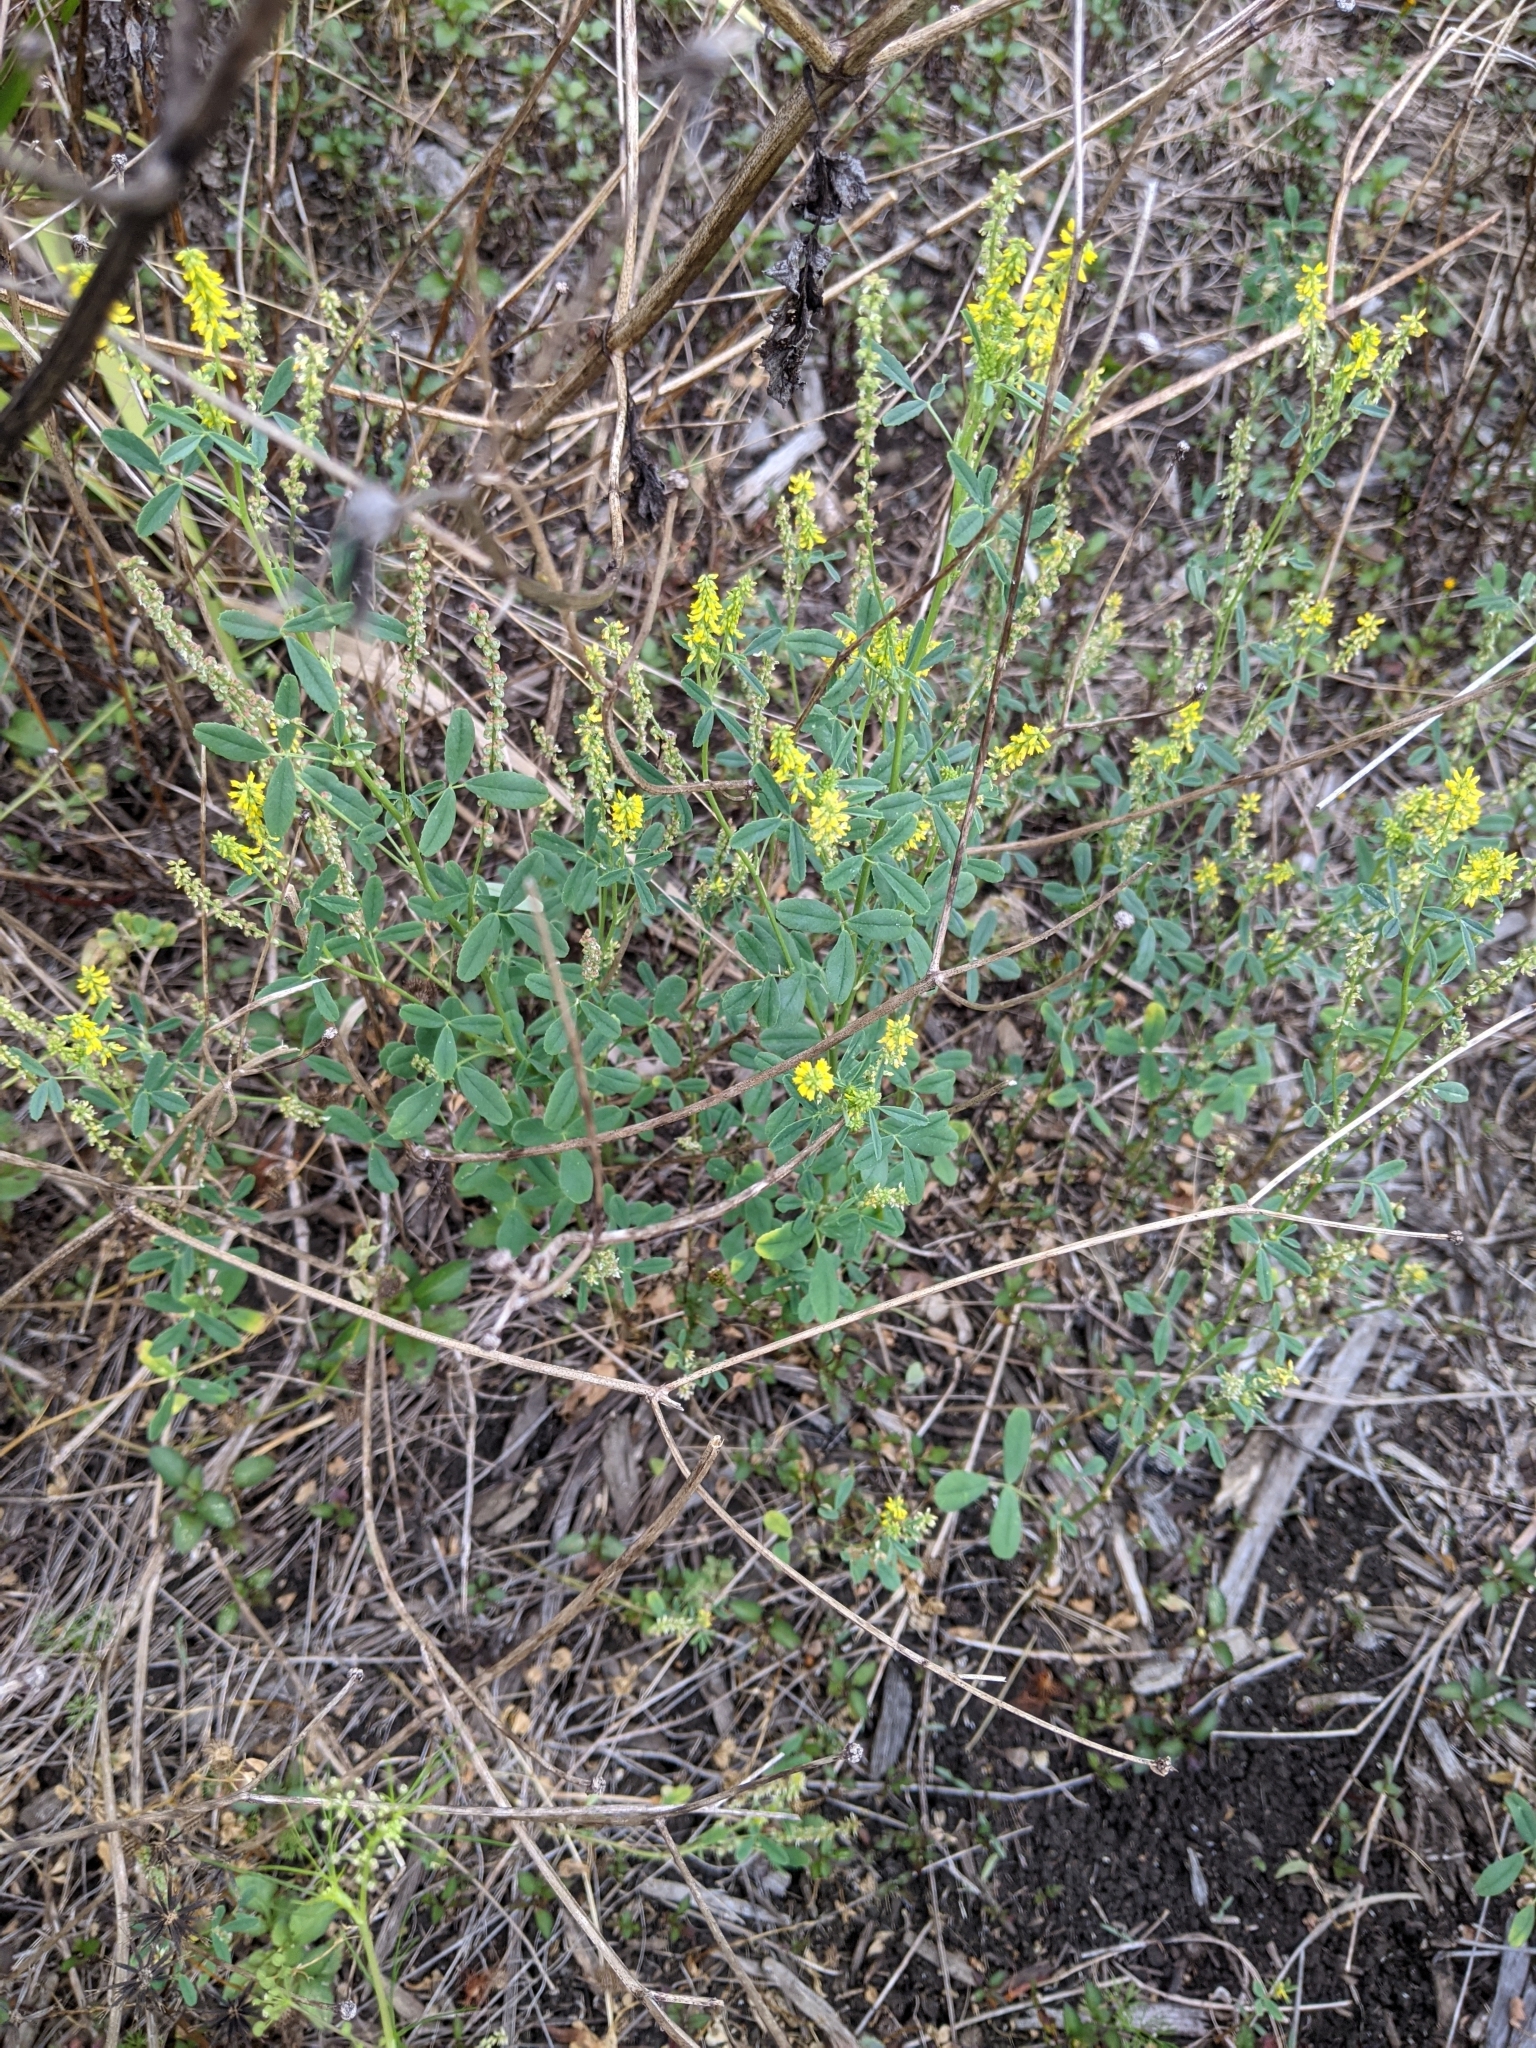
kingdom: Plantae
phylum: Tracheophyta
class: Magnoliopsida
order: Fabales
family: Fabaceae
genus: Melilotus
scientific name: Melilotus indicus
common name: Small melilot
